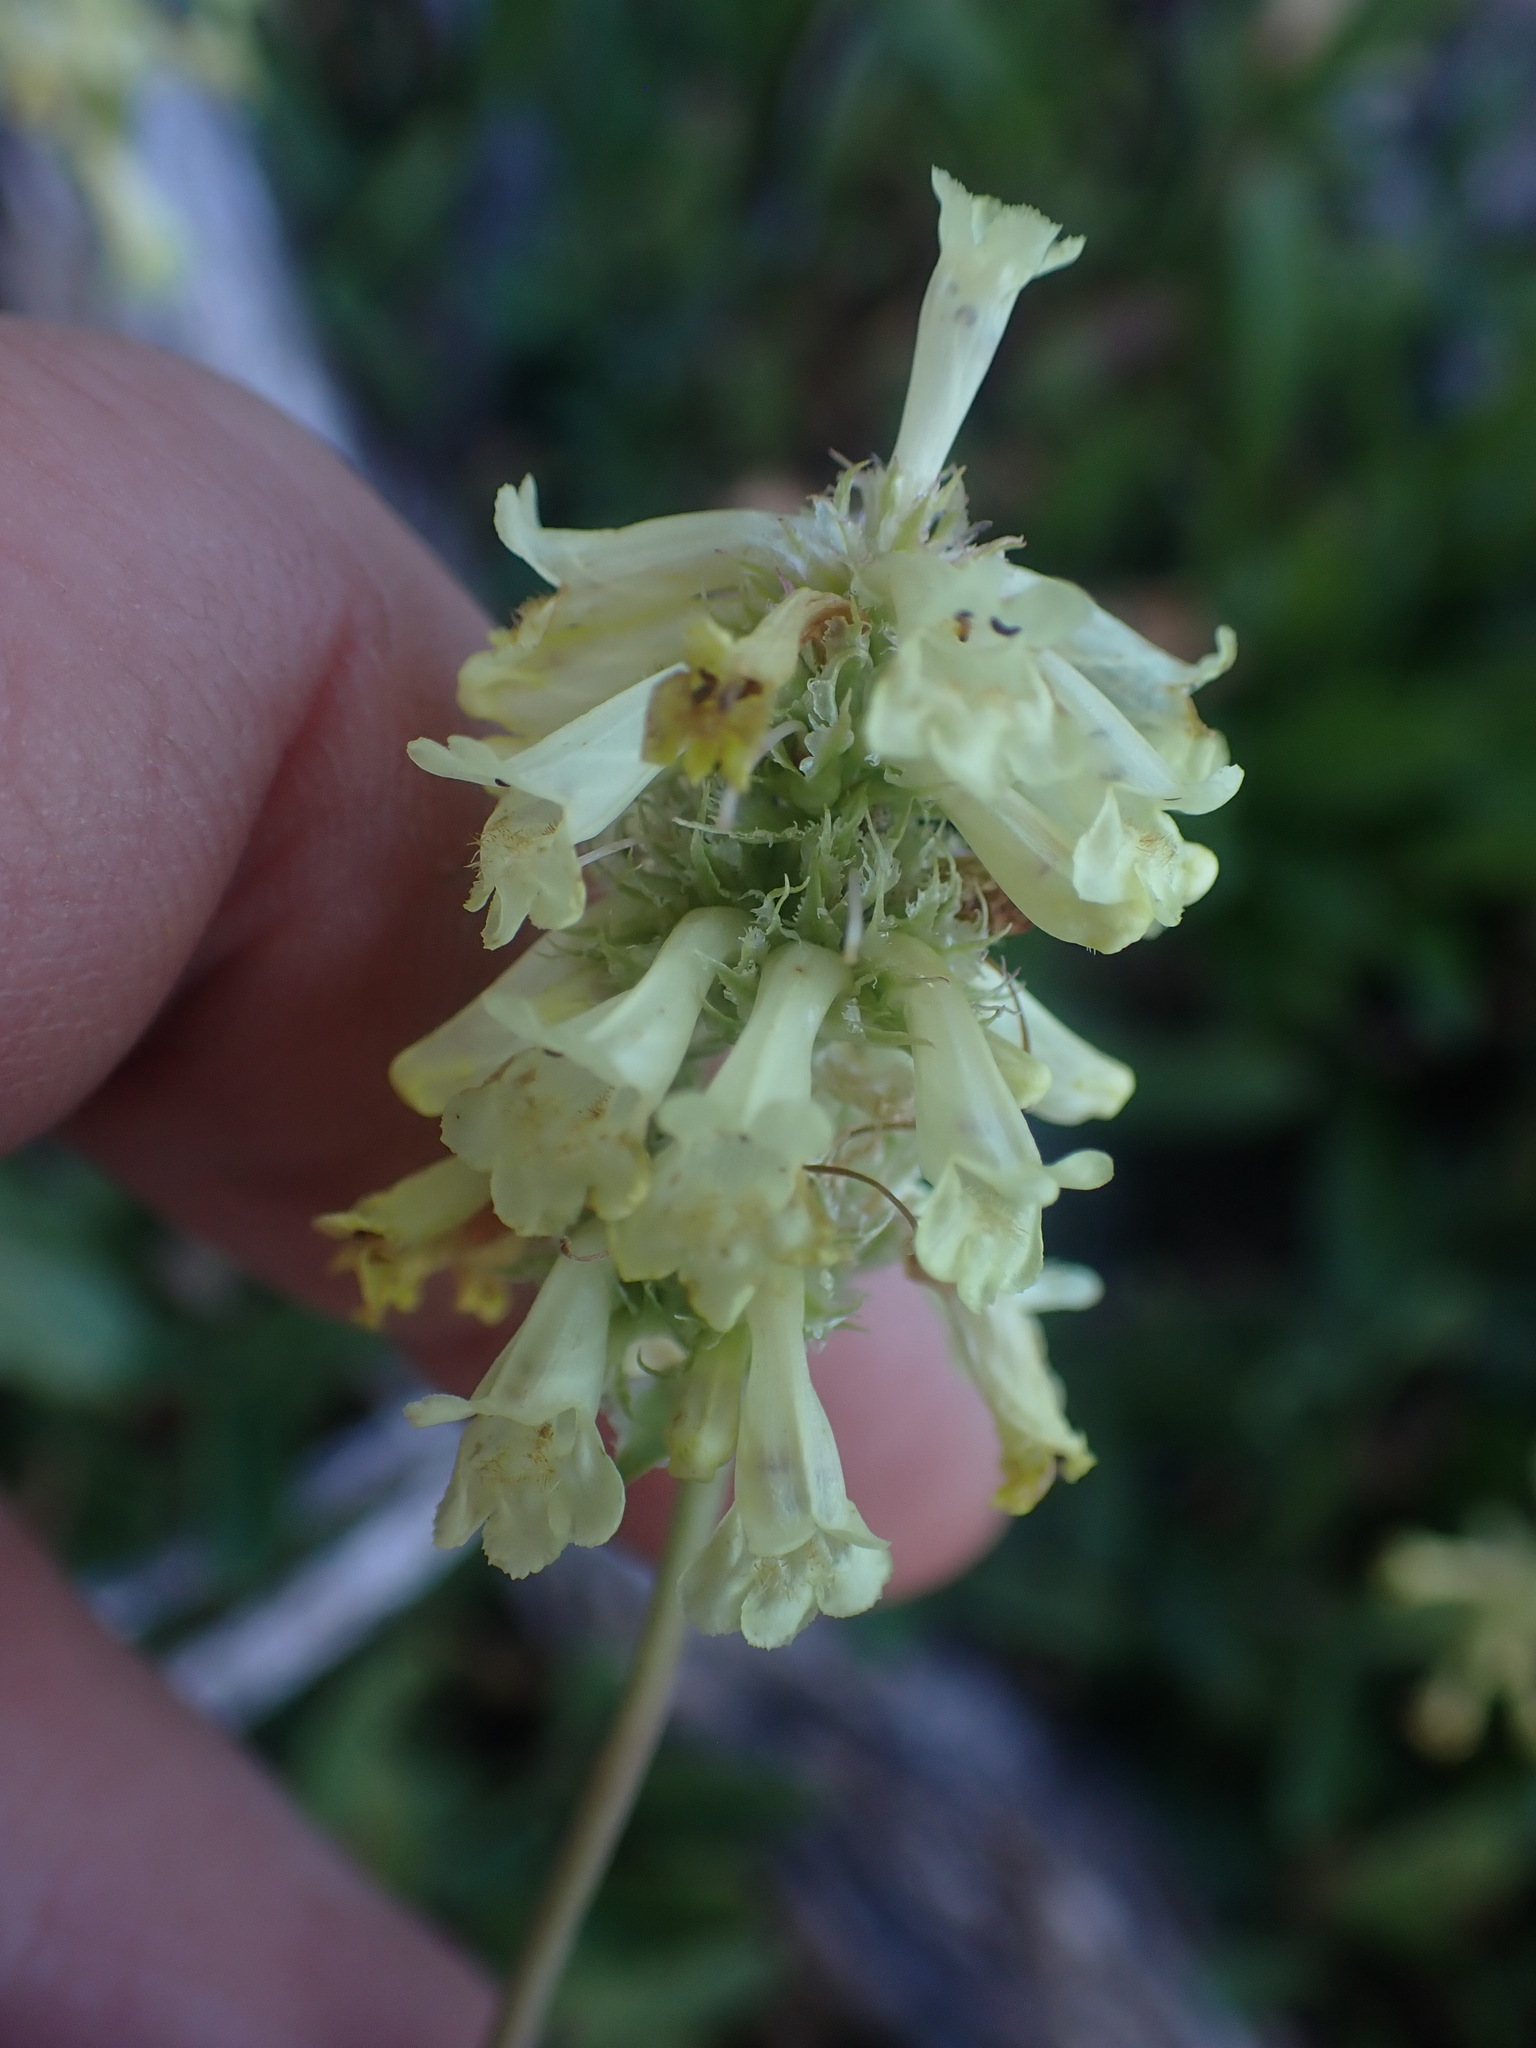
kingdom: Plantae
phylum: Tracheophyta
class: Magnoliopsida
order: Lamiales
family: Plantaginaceae
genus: Penstemon
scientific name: Penstemon confertus
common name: Lesser yellow beardtongue
